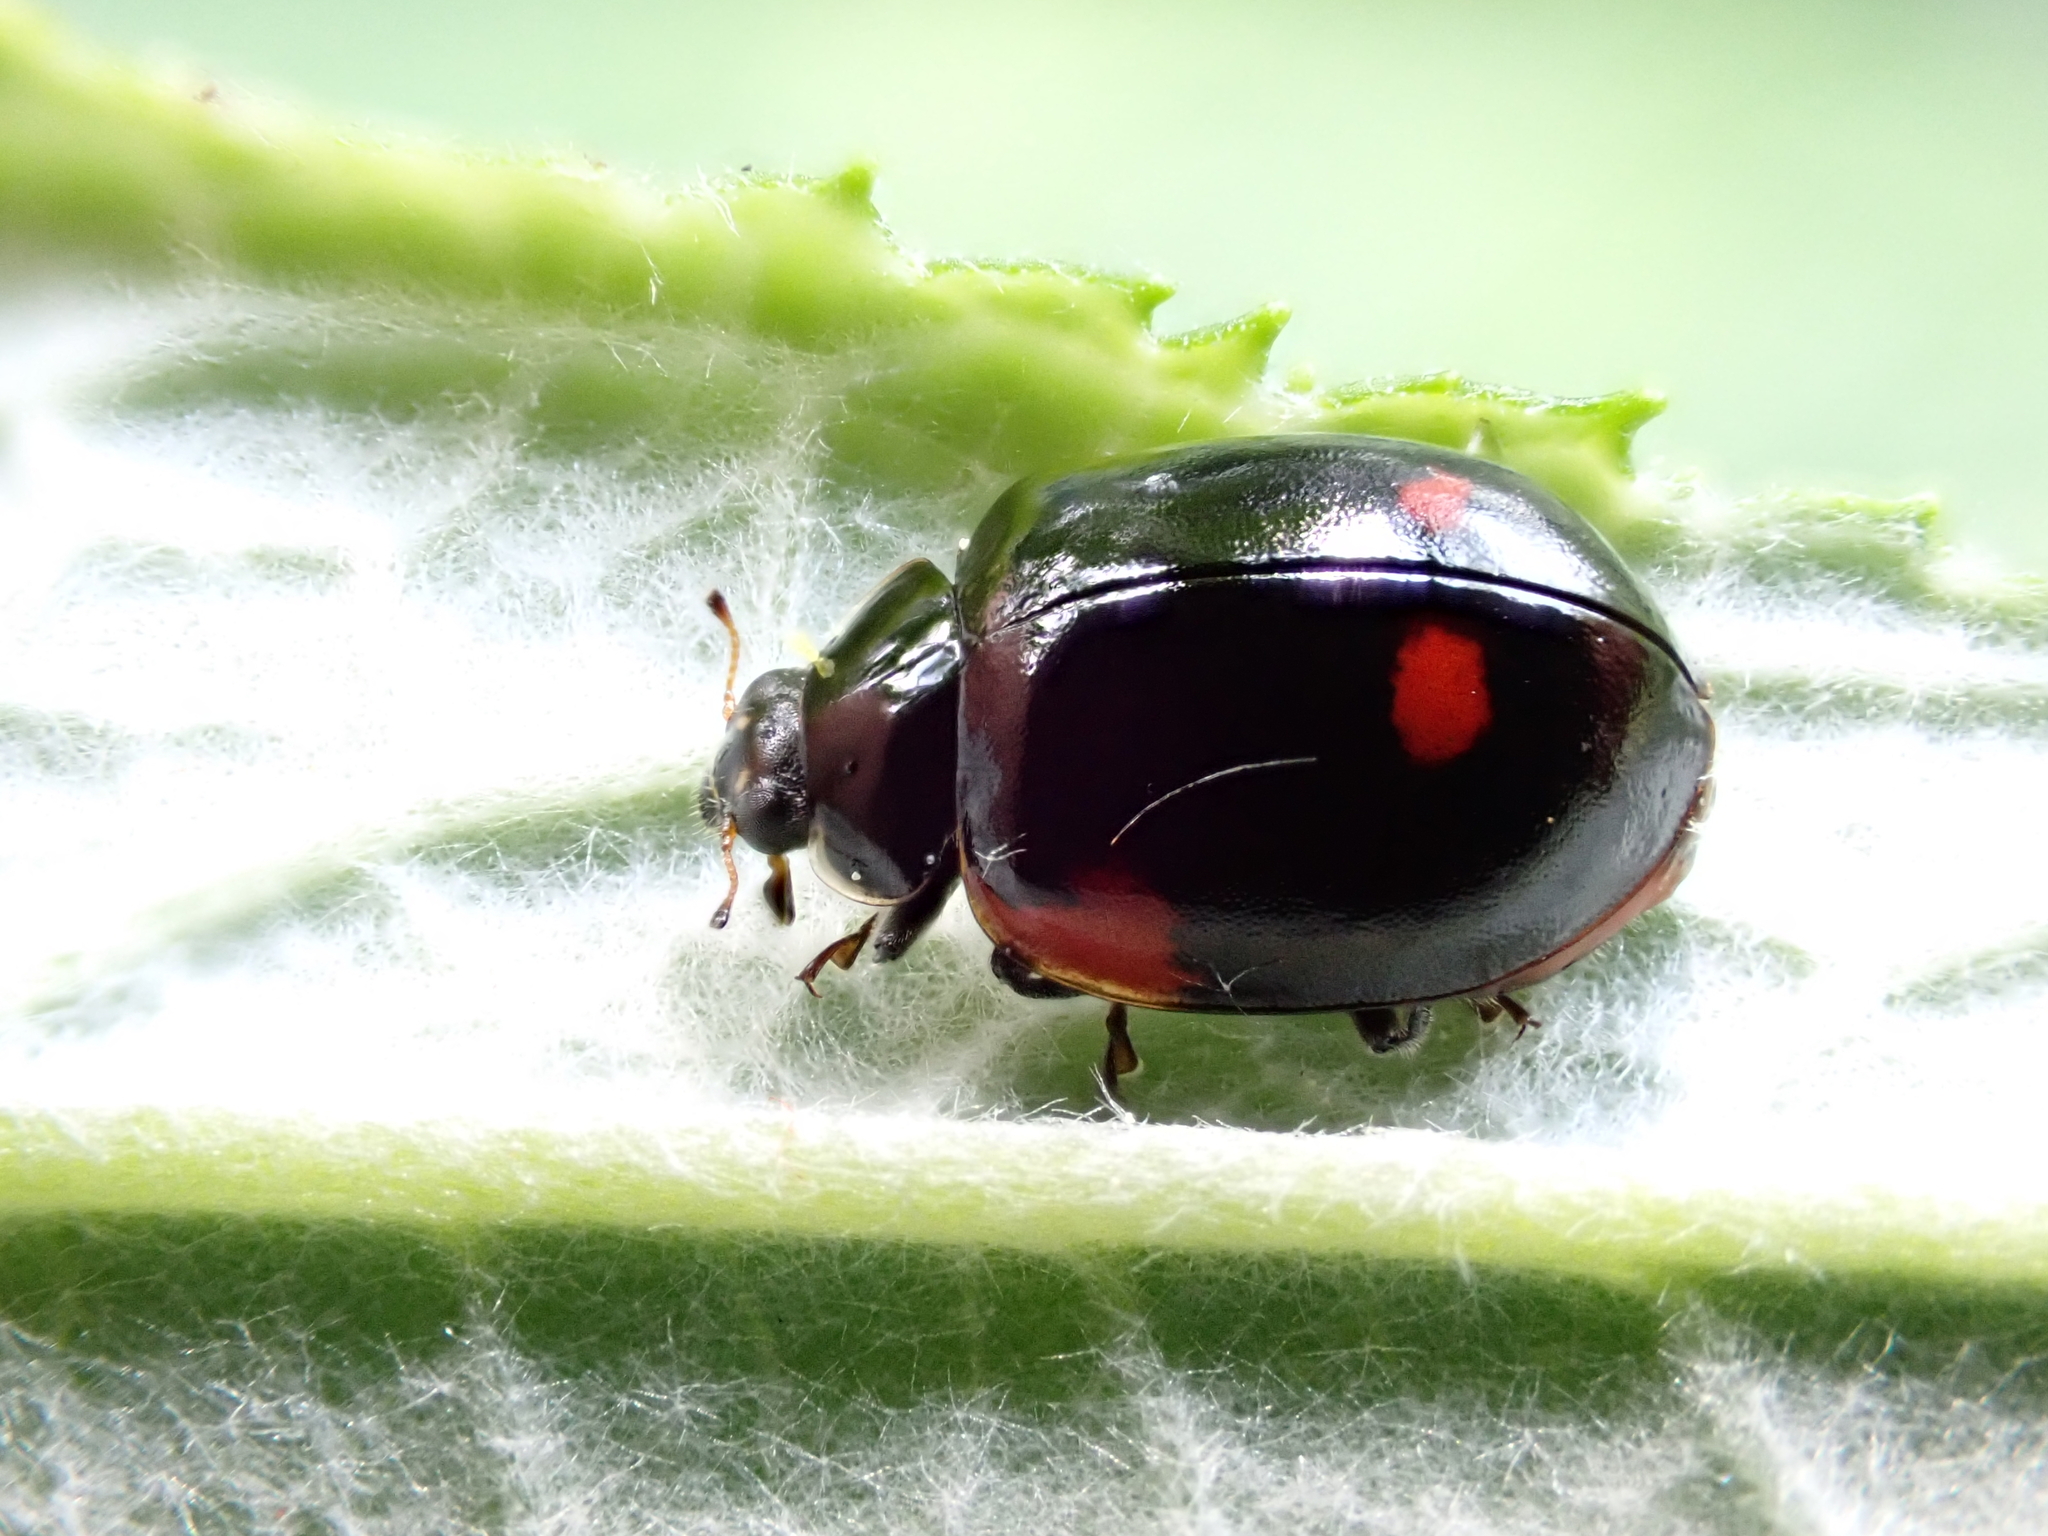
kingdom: Animalia
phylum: Arthropoda
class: Insecta
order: Coleoptera
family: Coccinellidae
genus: Adalia
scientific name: Adalia bipunctata
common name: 2-spot ladybird
